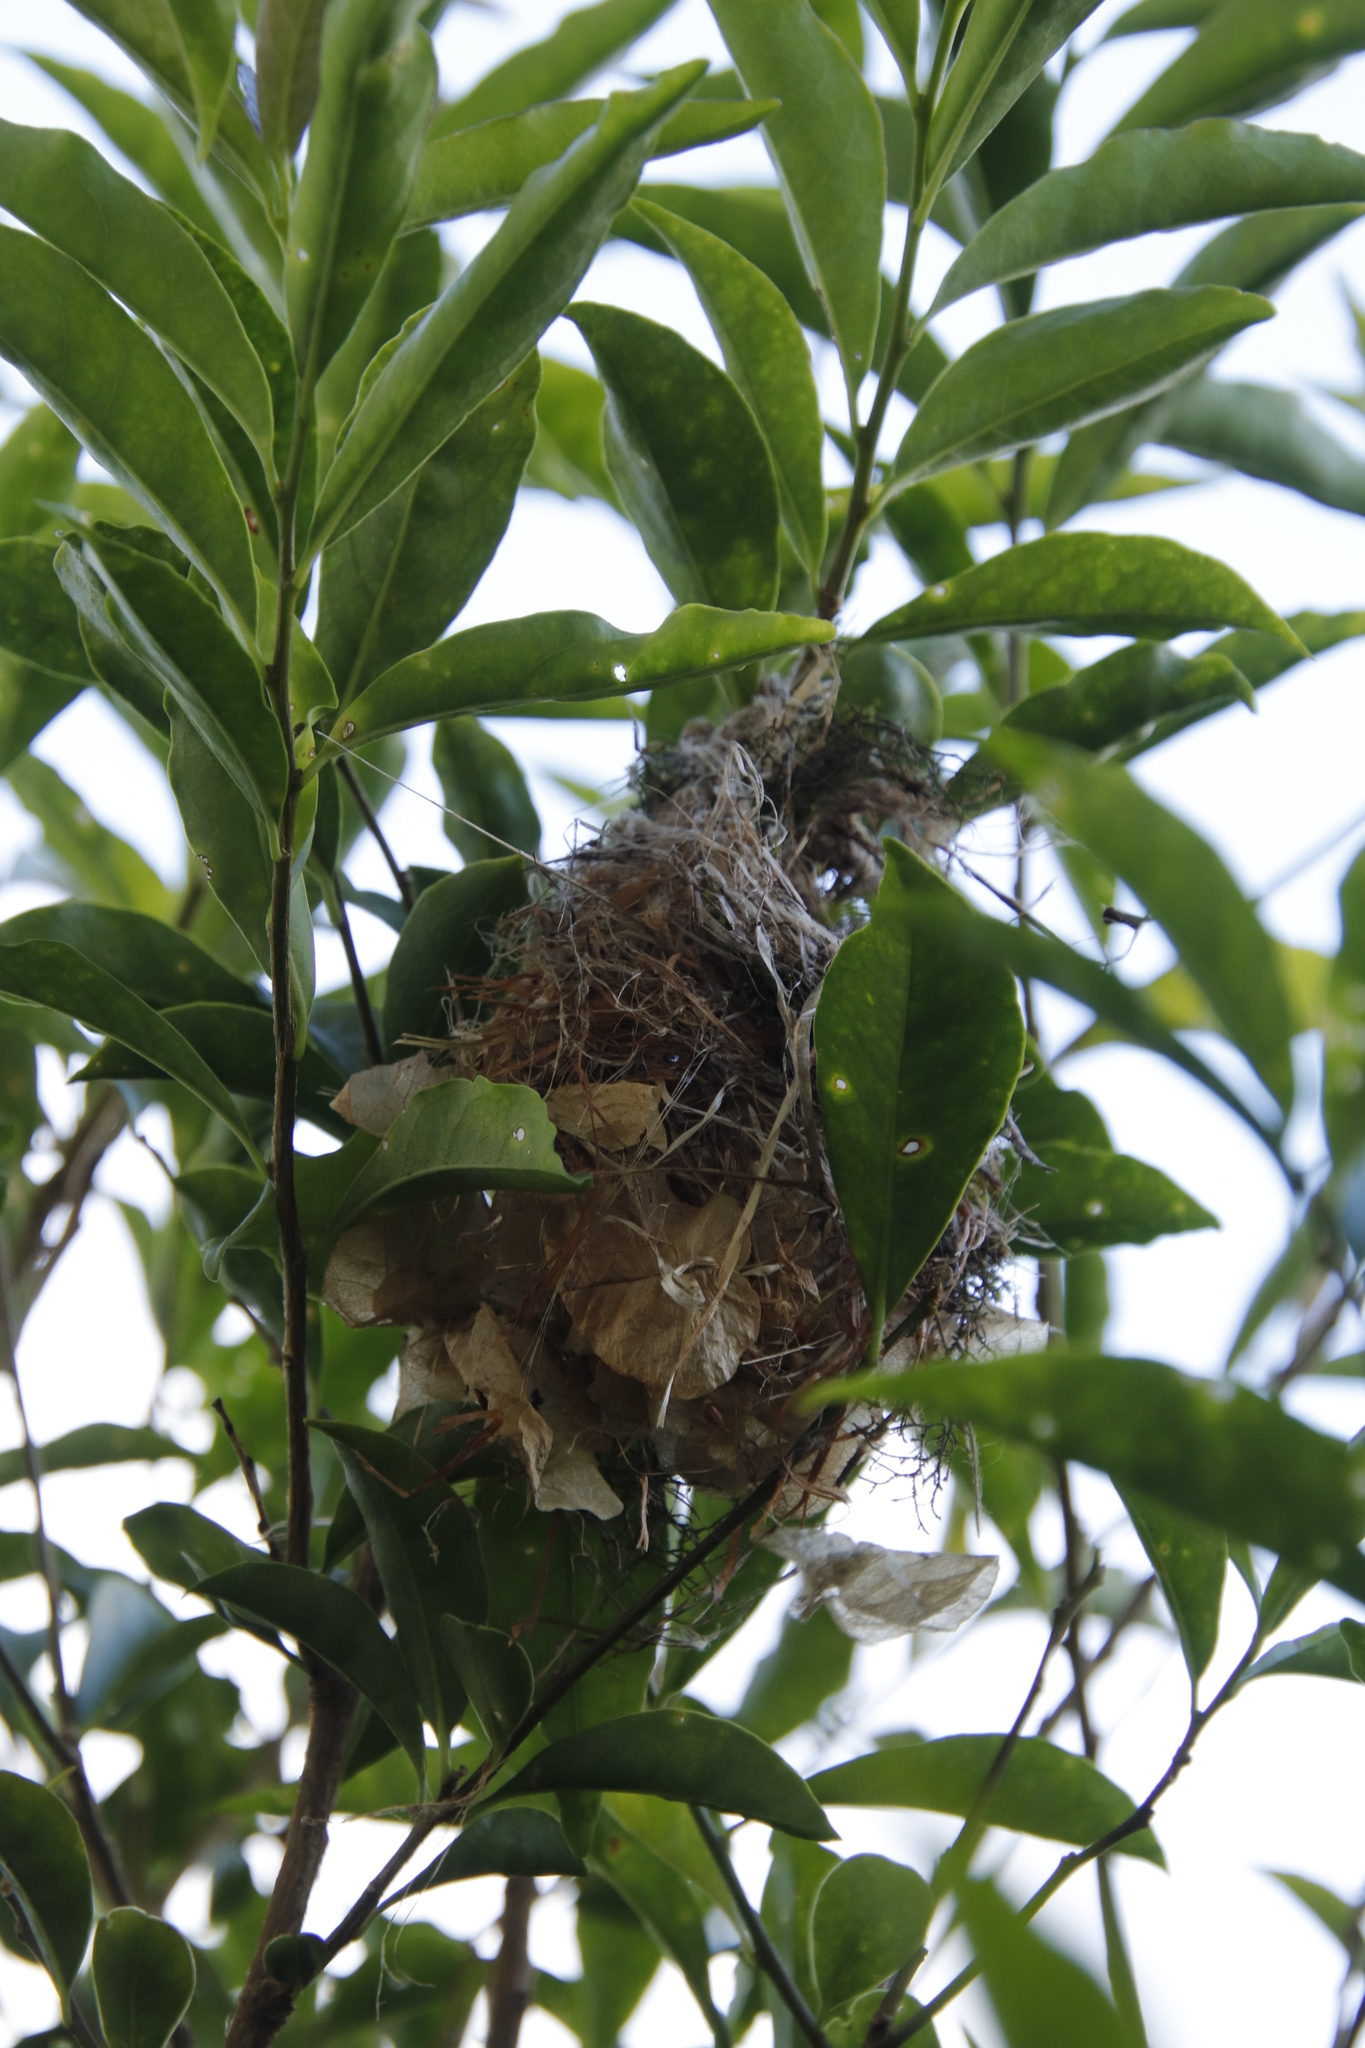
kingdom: Animalia
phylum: Chordata
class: Aves
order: Passeriformes
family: Nectariniidae
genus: Cinnyris
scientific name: Cinnyris venustus
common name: Variable sunbird
